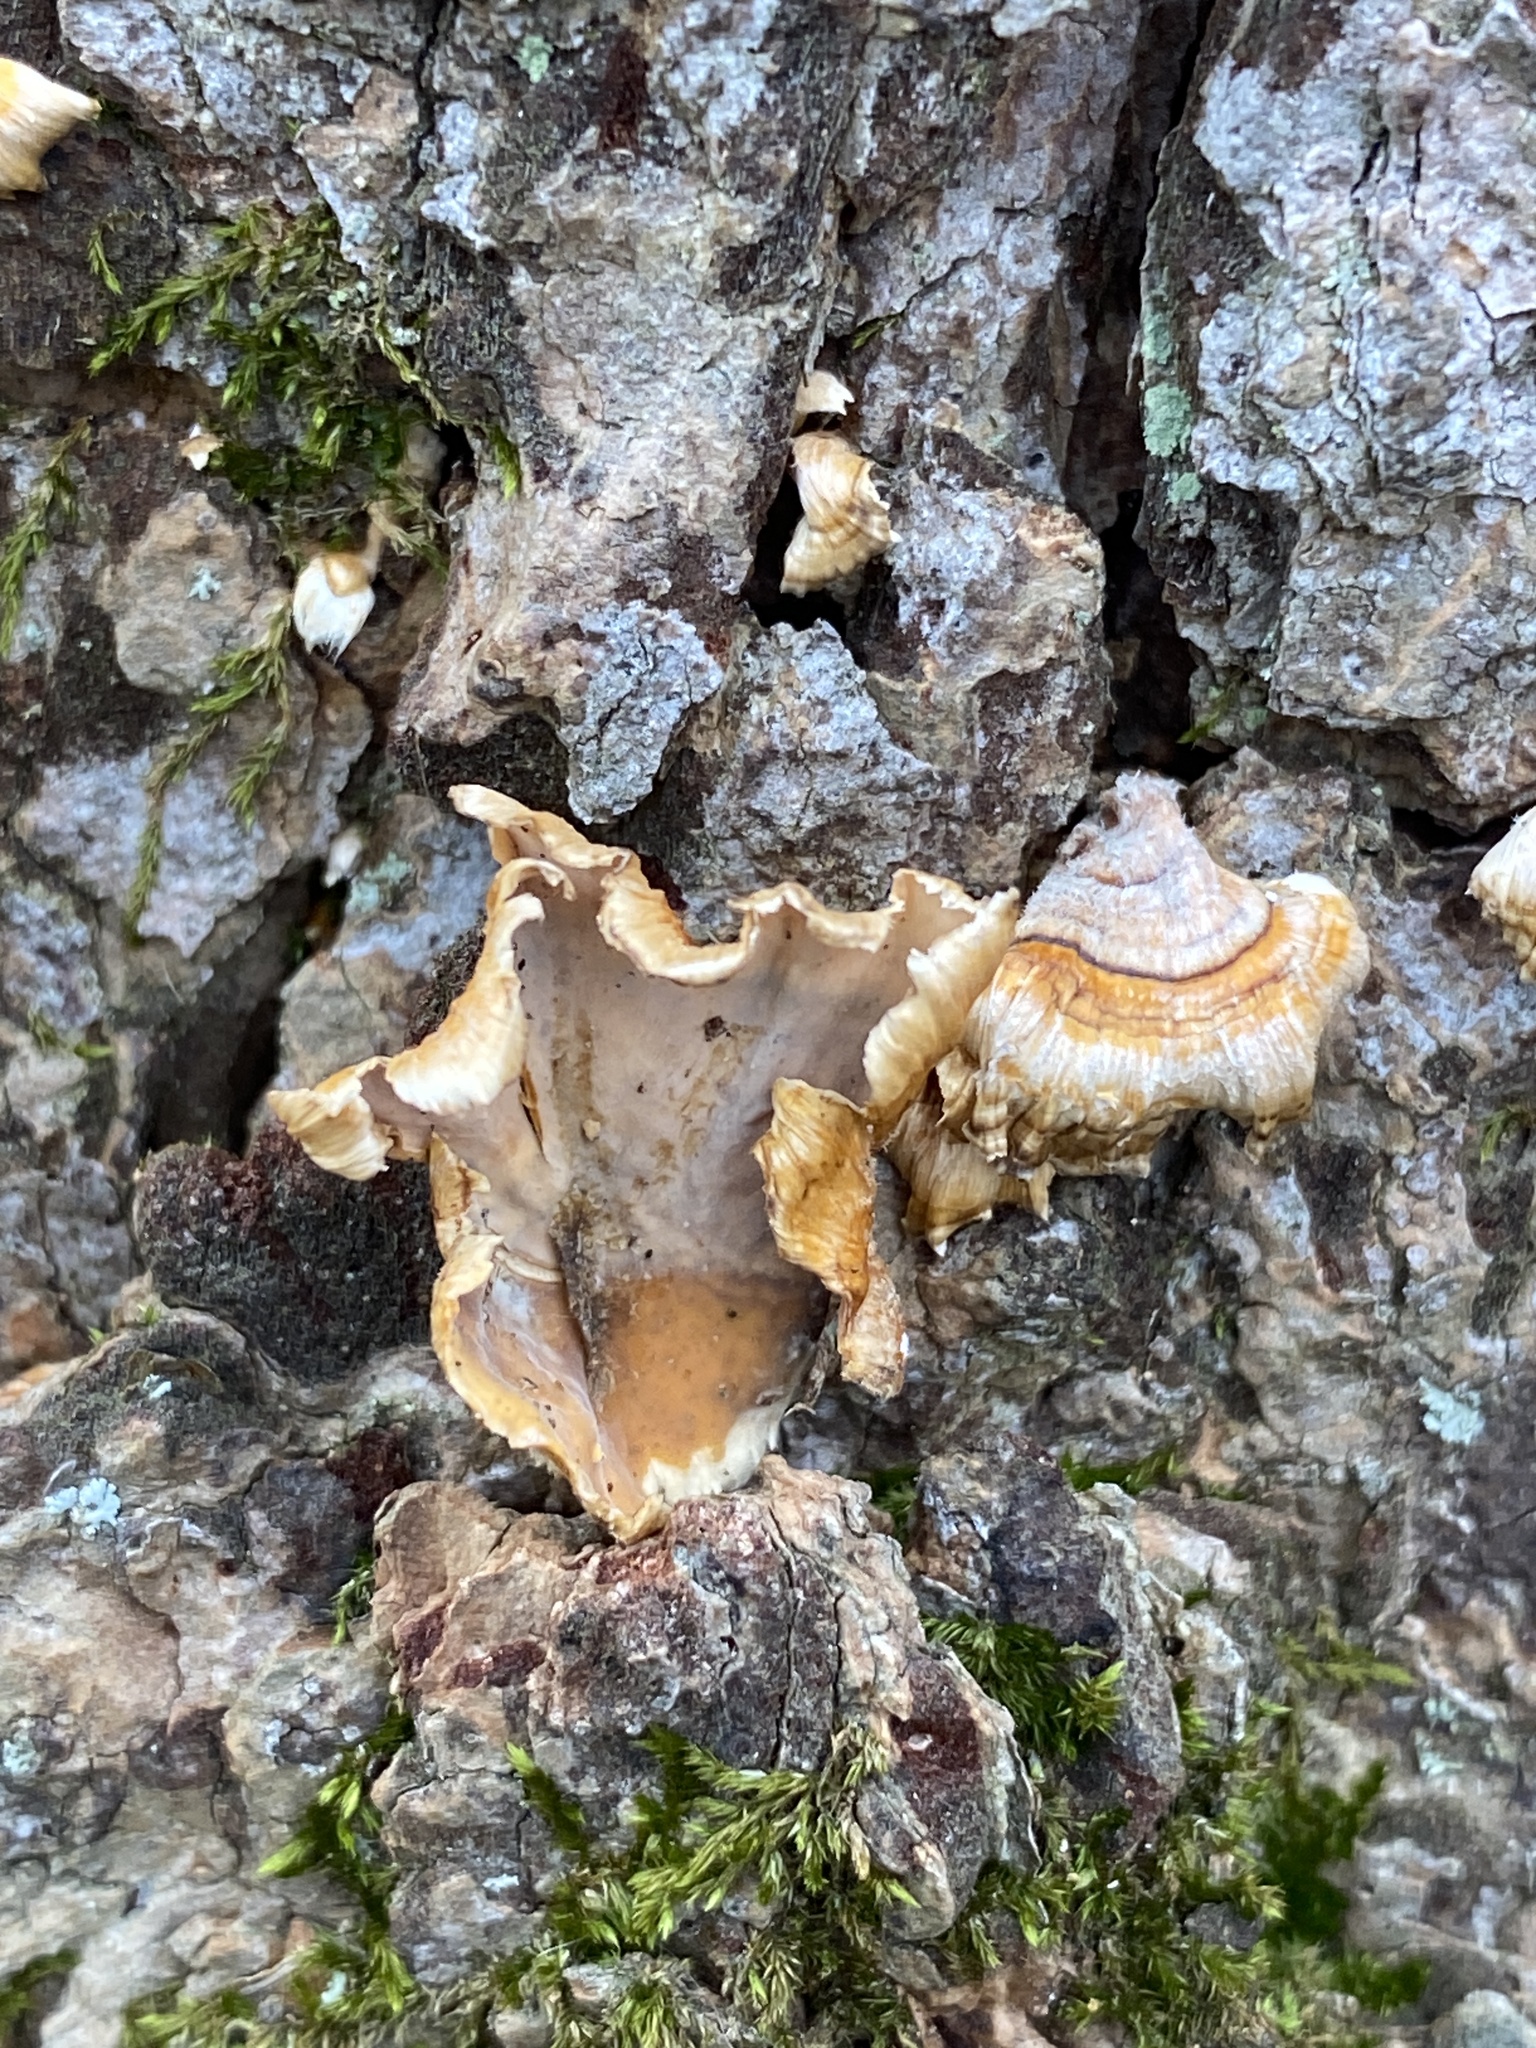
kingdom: Fungi
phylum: Basidiomycota
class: Agaricomycetes
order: Russulales
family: Stereaceae
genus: Stereum
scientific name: Stereum complicatum
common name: Crowded parchment
